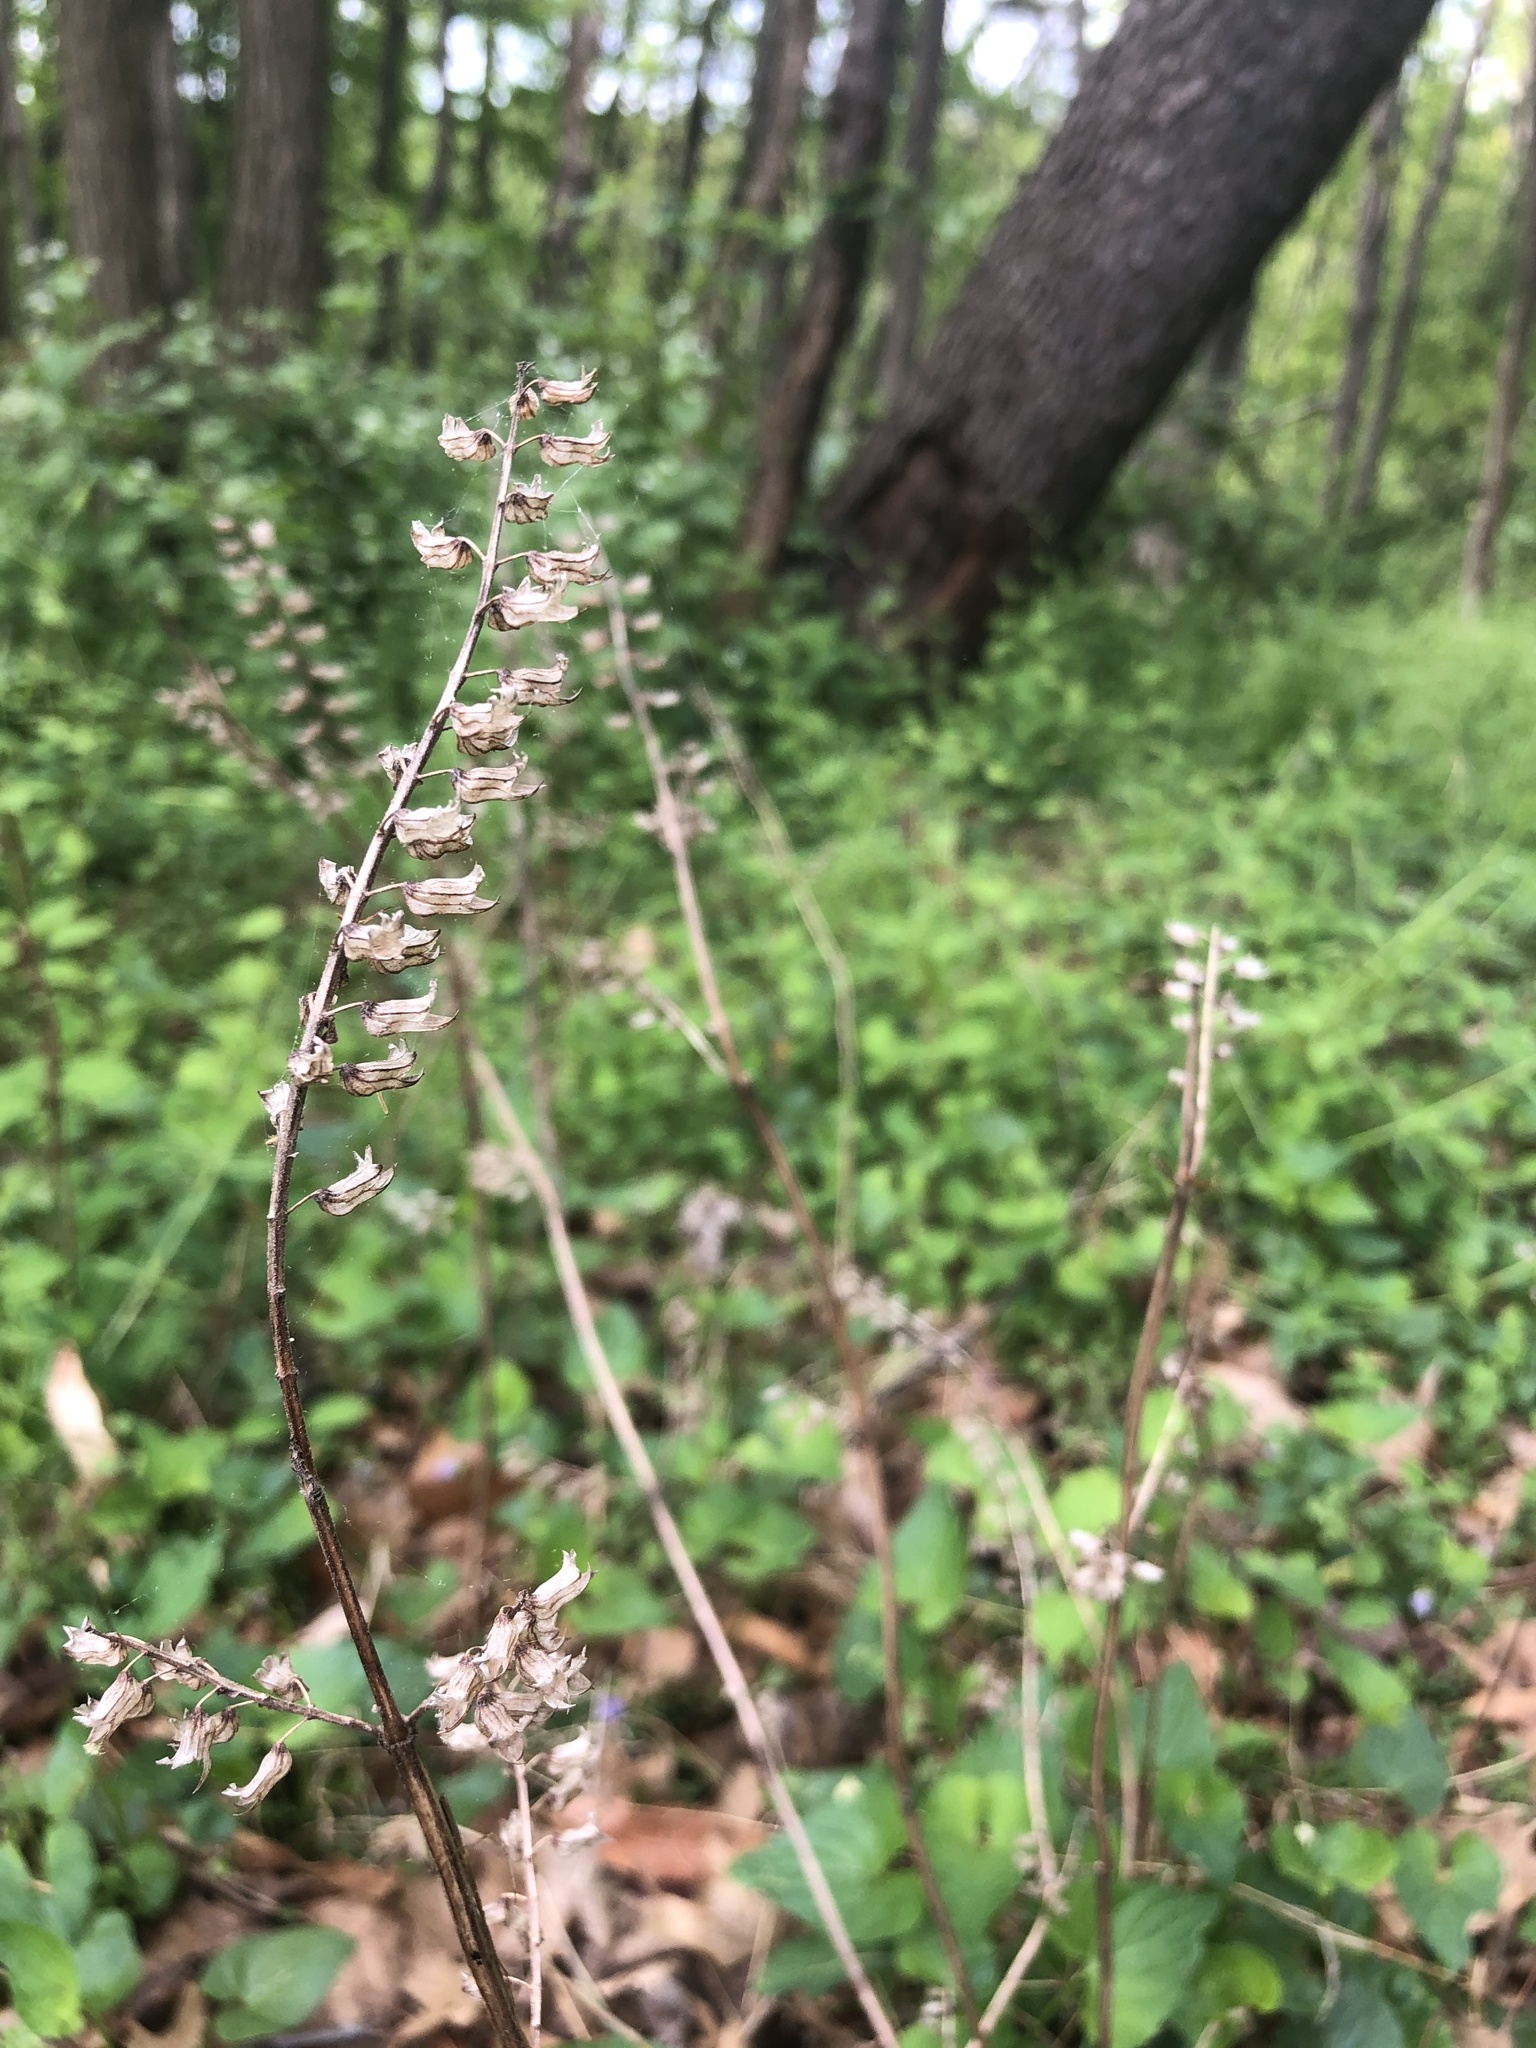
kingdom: Plantae
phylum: Tracheophyta
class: Magnoliopsida
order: Lamiales
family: Lamiaceae
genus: Perilla
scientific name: Perilla frutescens
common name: Perilla
